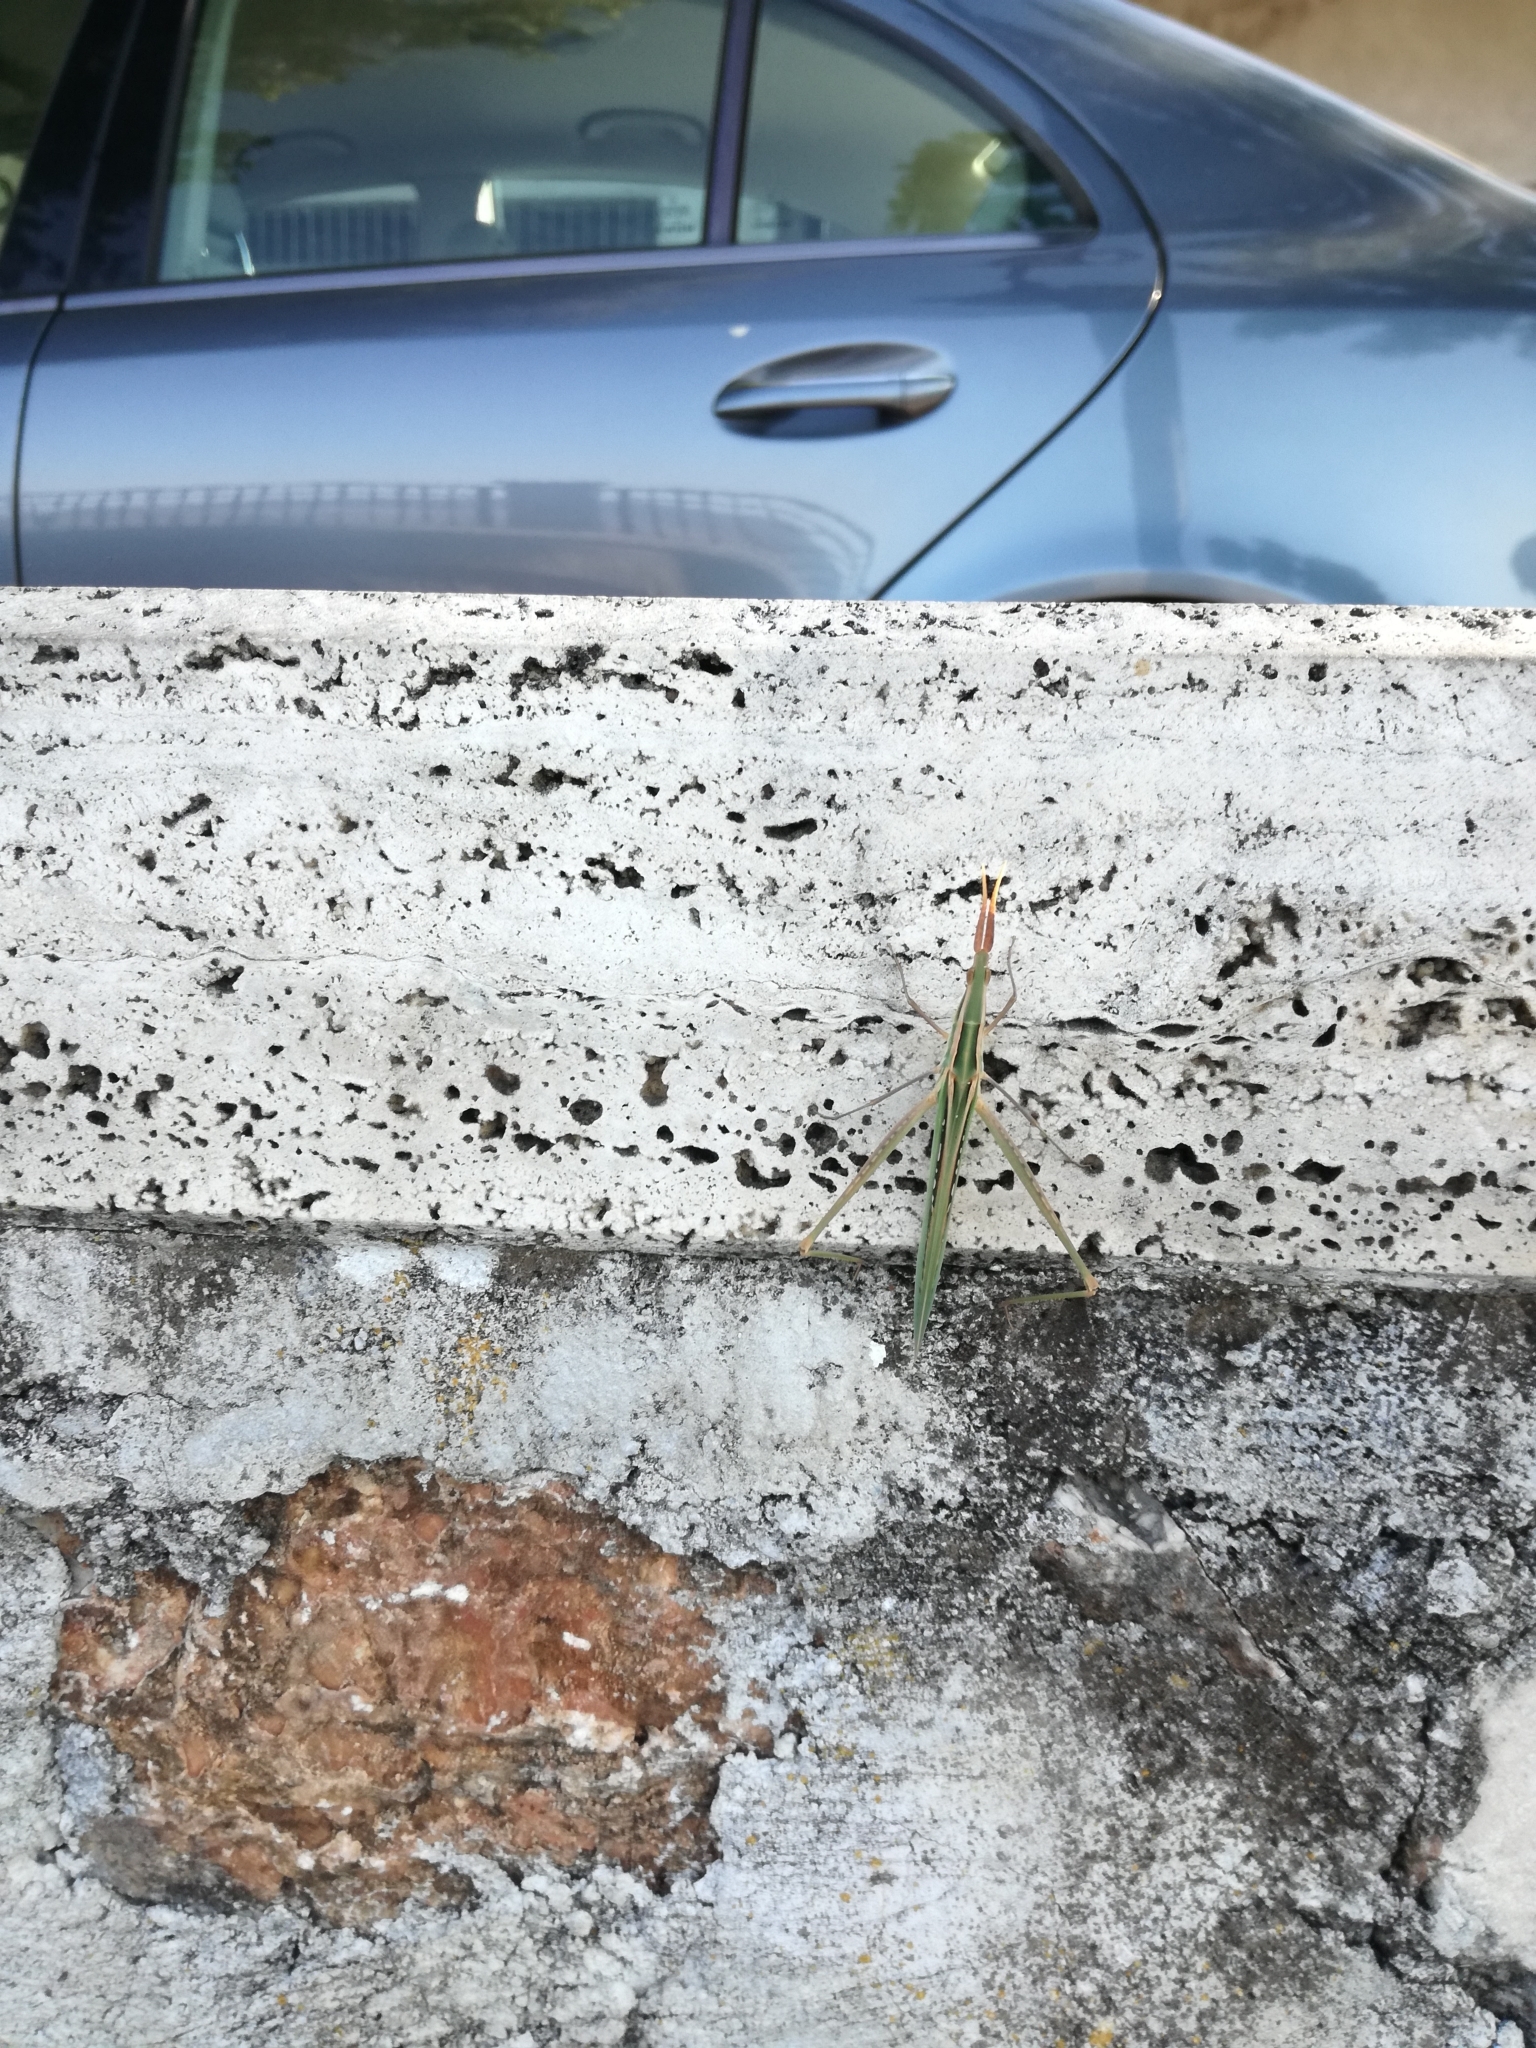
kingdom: Animalia
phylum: Arthropoda
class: Insecta
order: Orthoptera
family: Acrididae
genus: Acrida
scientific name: Acrida ungarica
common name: Common cone-headed grasshopper
